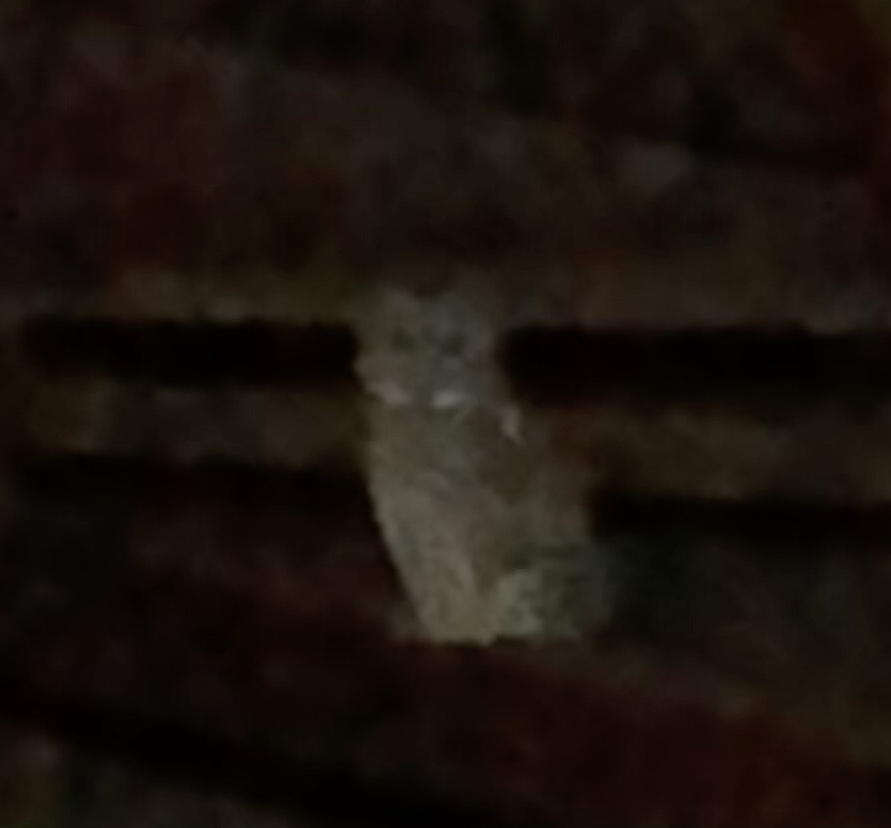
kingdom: Animalia
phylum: Chordata
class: Aves
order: Strigiformes
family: Strigidae
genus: Strix
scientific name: Strix varia
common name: Barred owl
